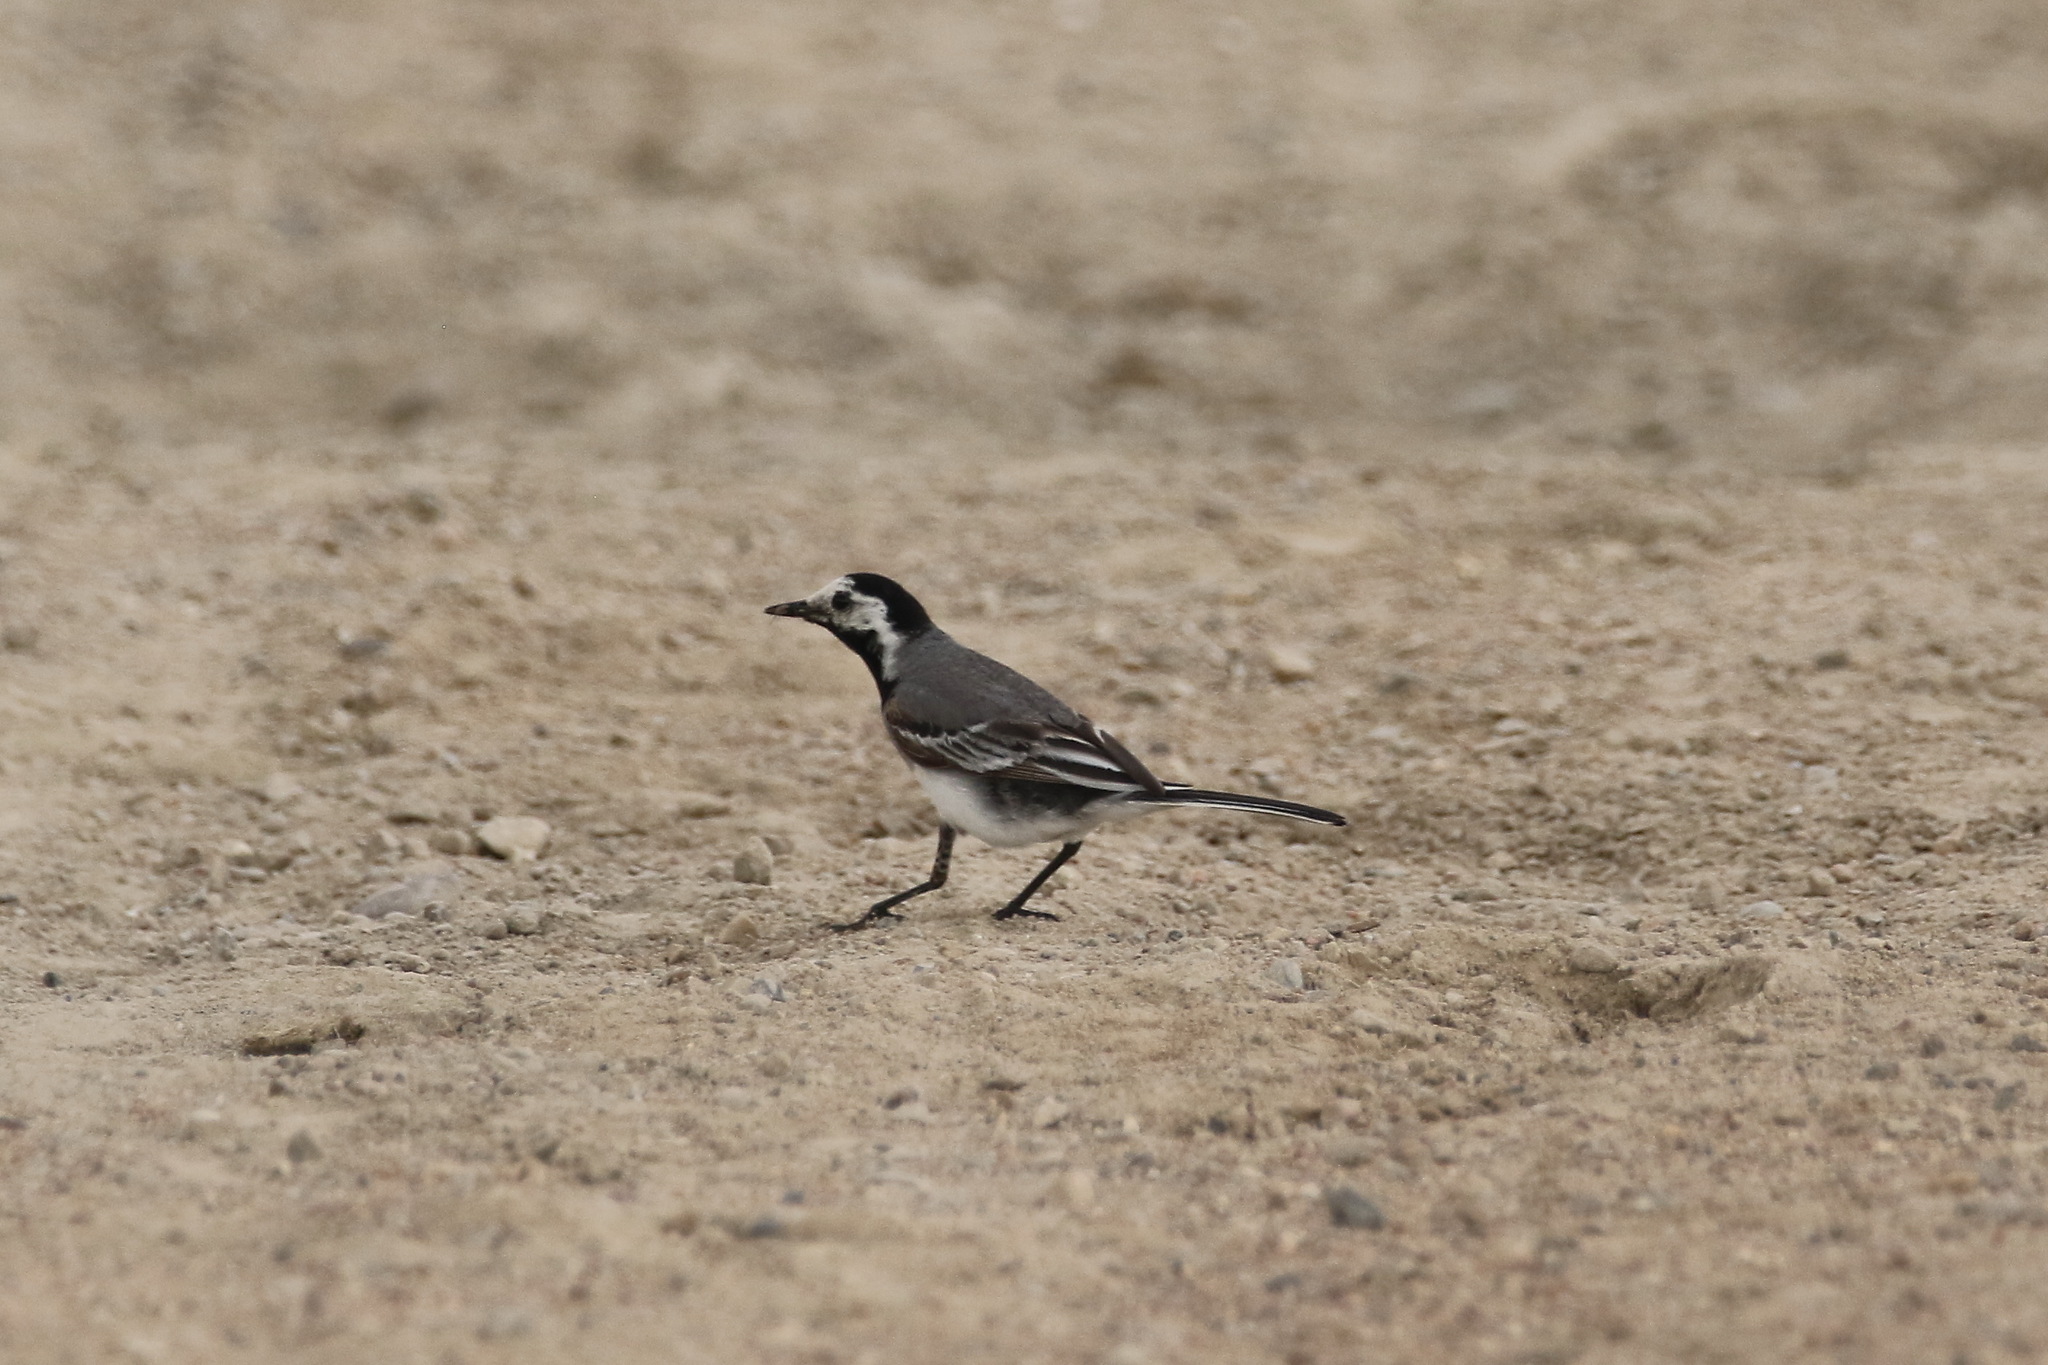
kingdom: Animalia
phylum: Chordata
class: Aves
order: Passeriformes
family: Motacillidae
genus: Motacilla
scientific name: Motacilla alba
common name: White wagtail
